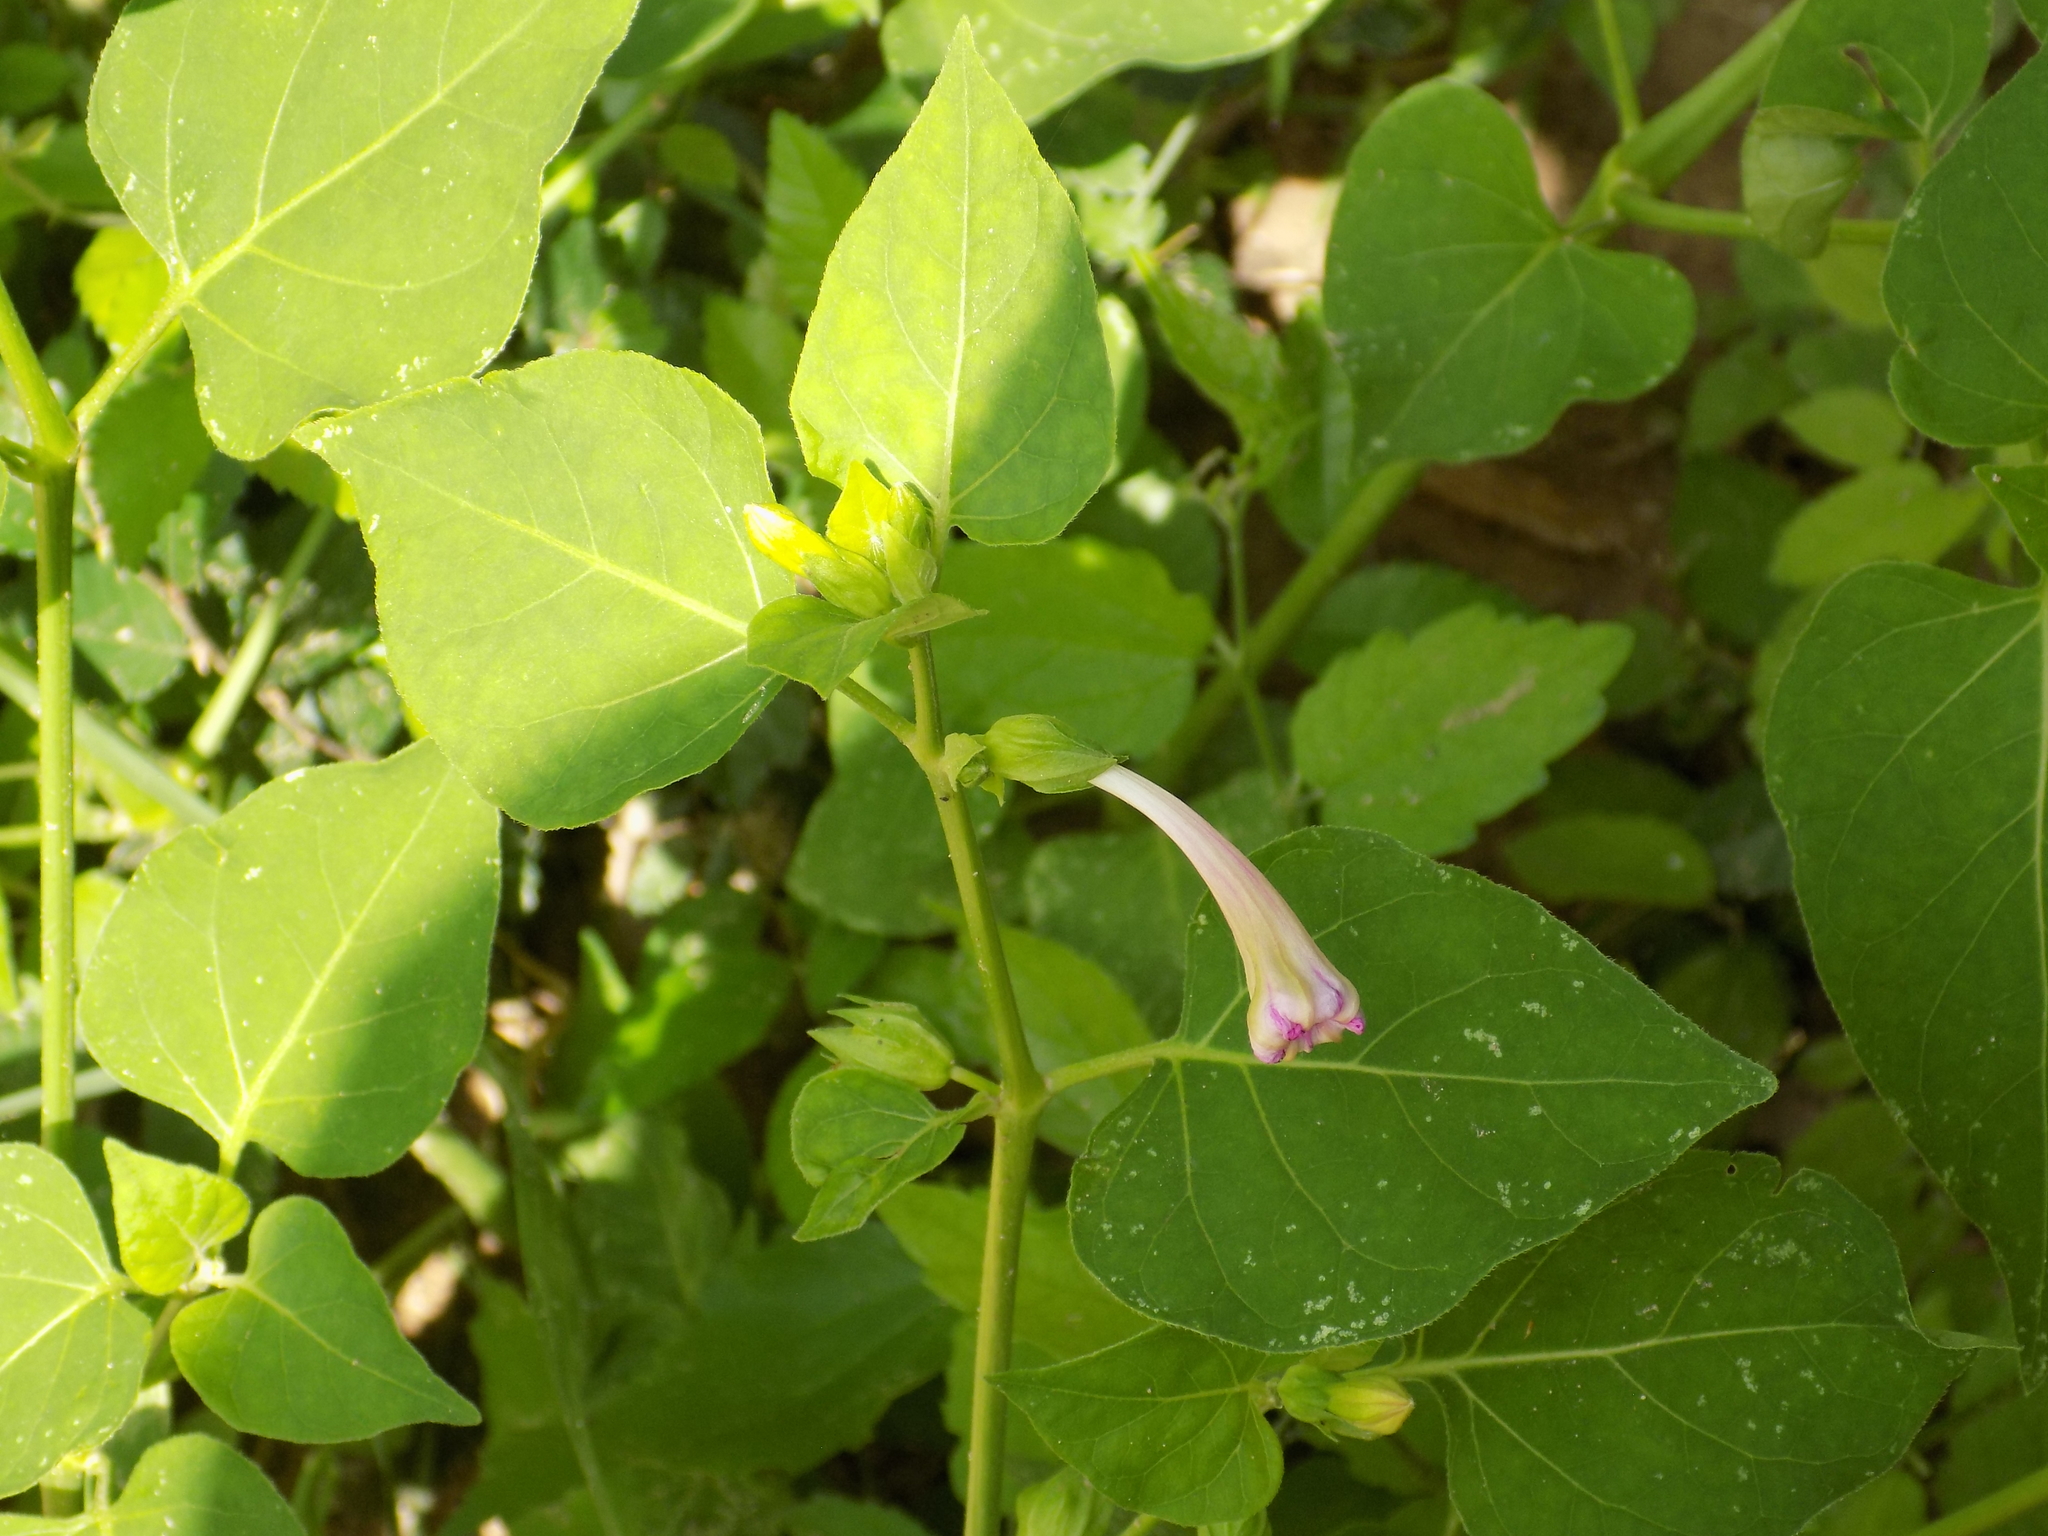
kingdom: Plantae
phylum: Tracheophyta
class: Magnoliopsida
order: Caryophyllales
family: Nyctaginaceae
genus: Mirabilis
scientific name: Mirabilis jalapa
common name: Marvel-of-peru
